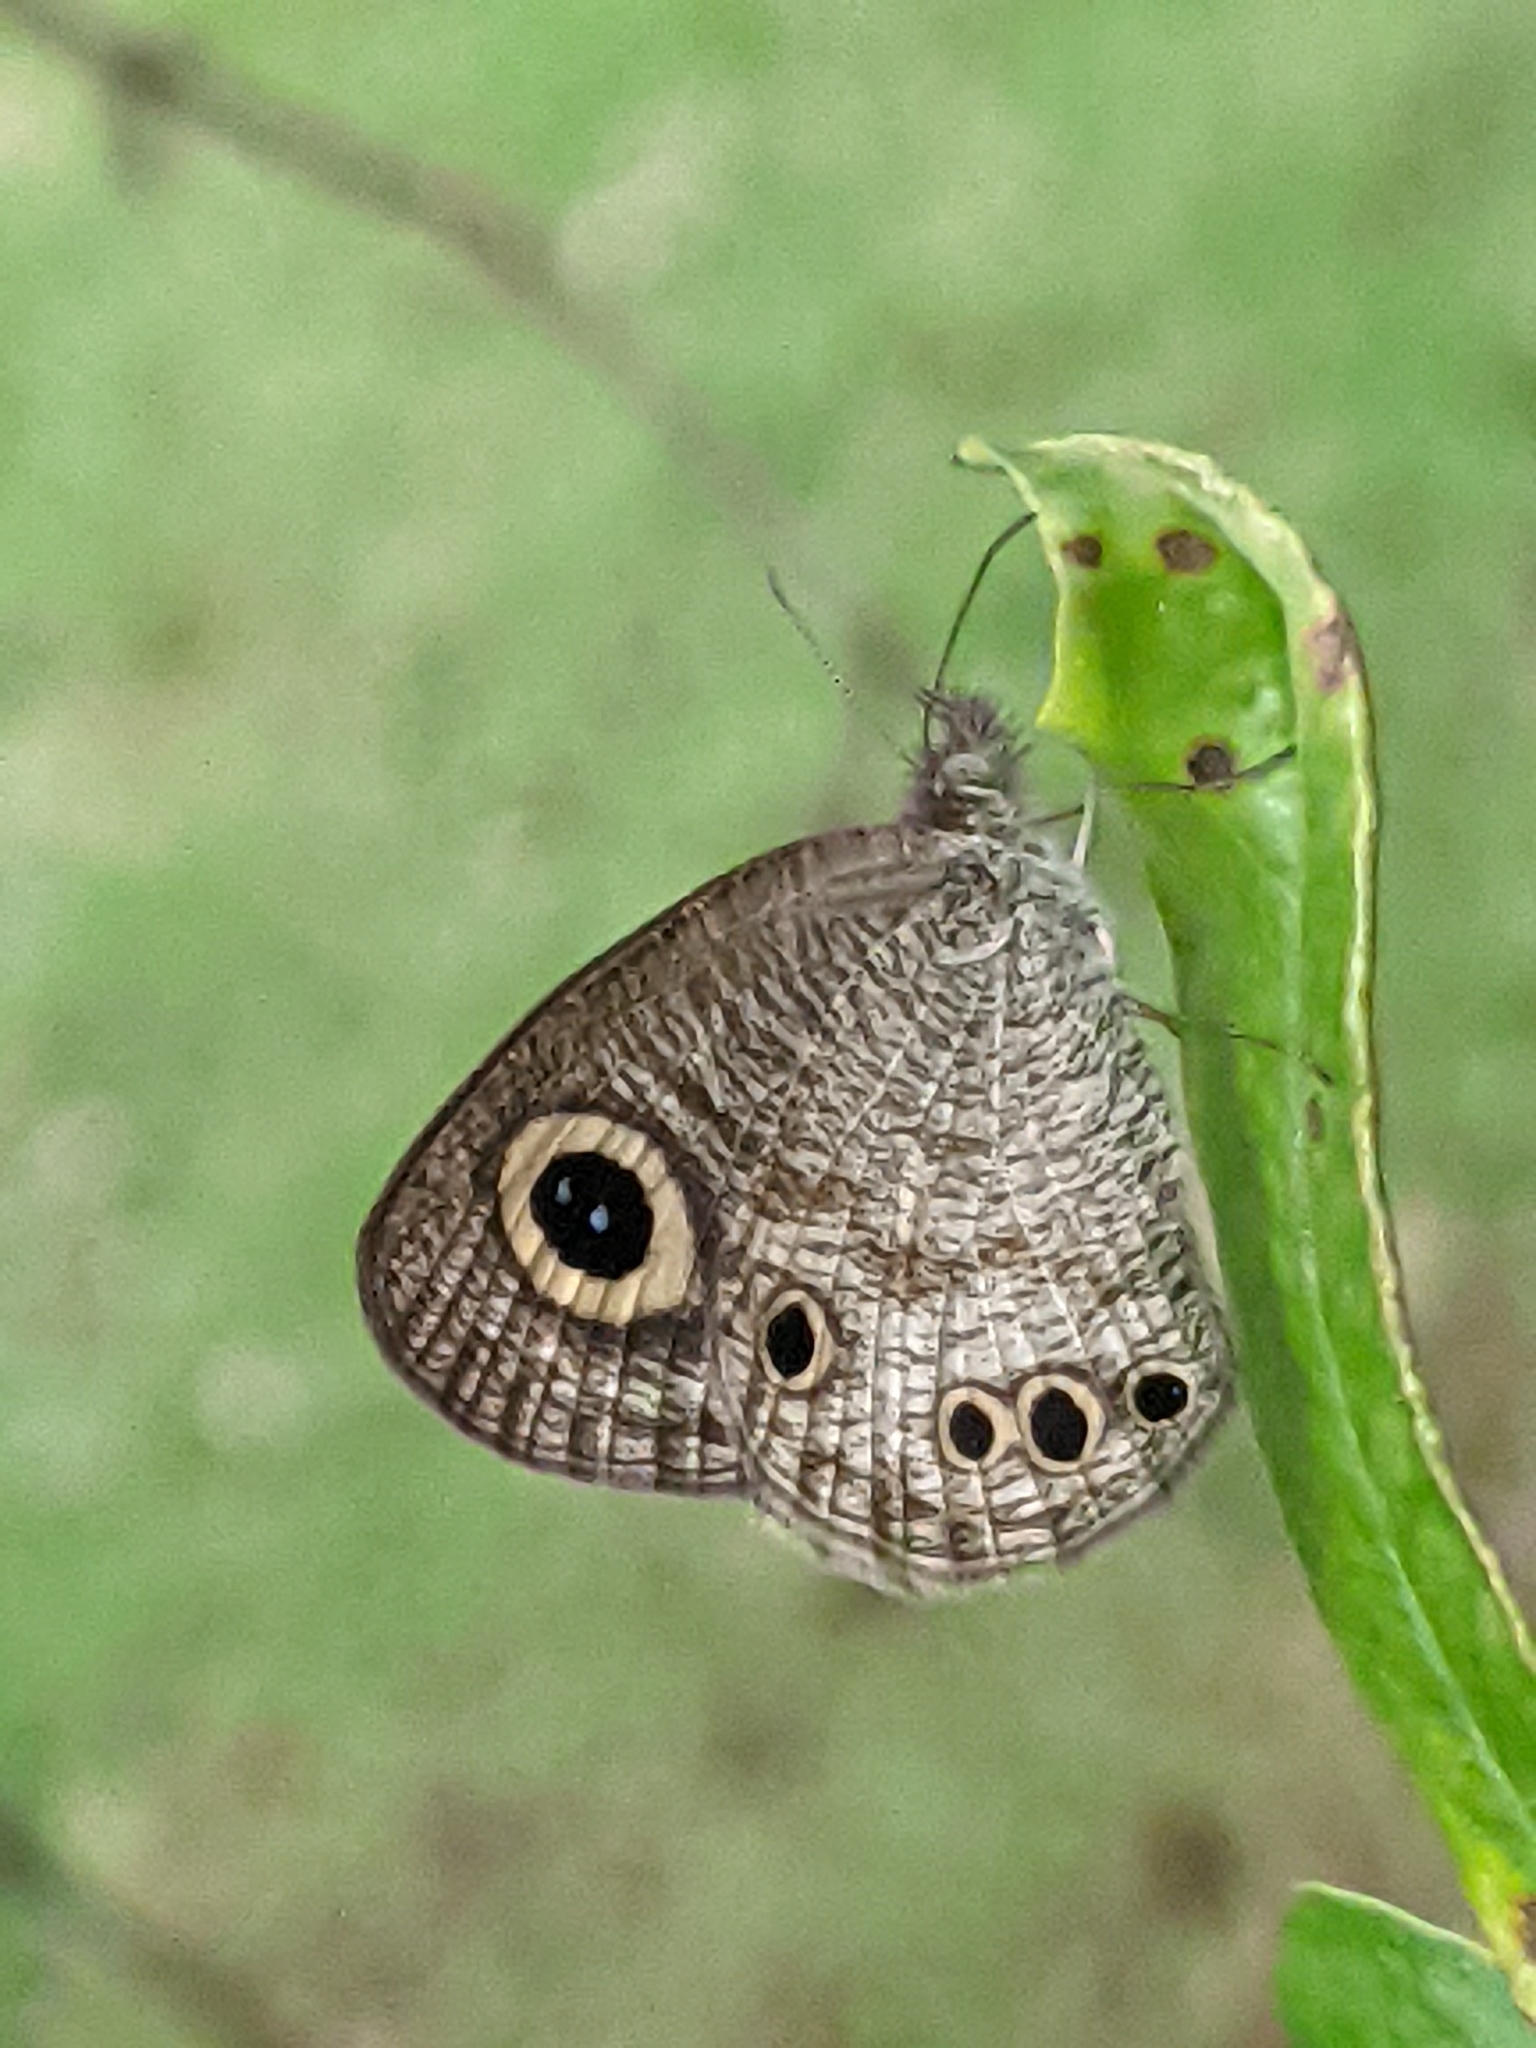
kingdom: Animalia
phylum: Arthropoda
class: Insecta
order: Lepidoptera
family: Nymphalidae
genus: Ypthima
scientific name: Ypthima huebneri
